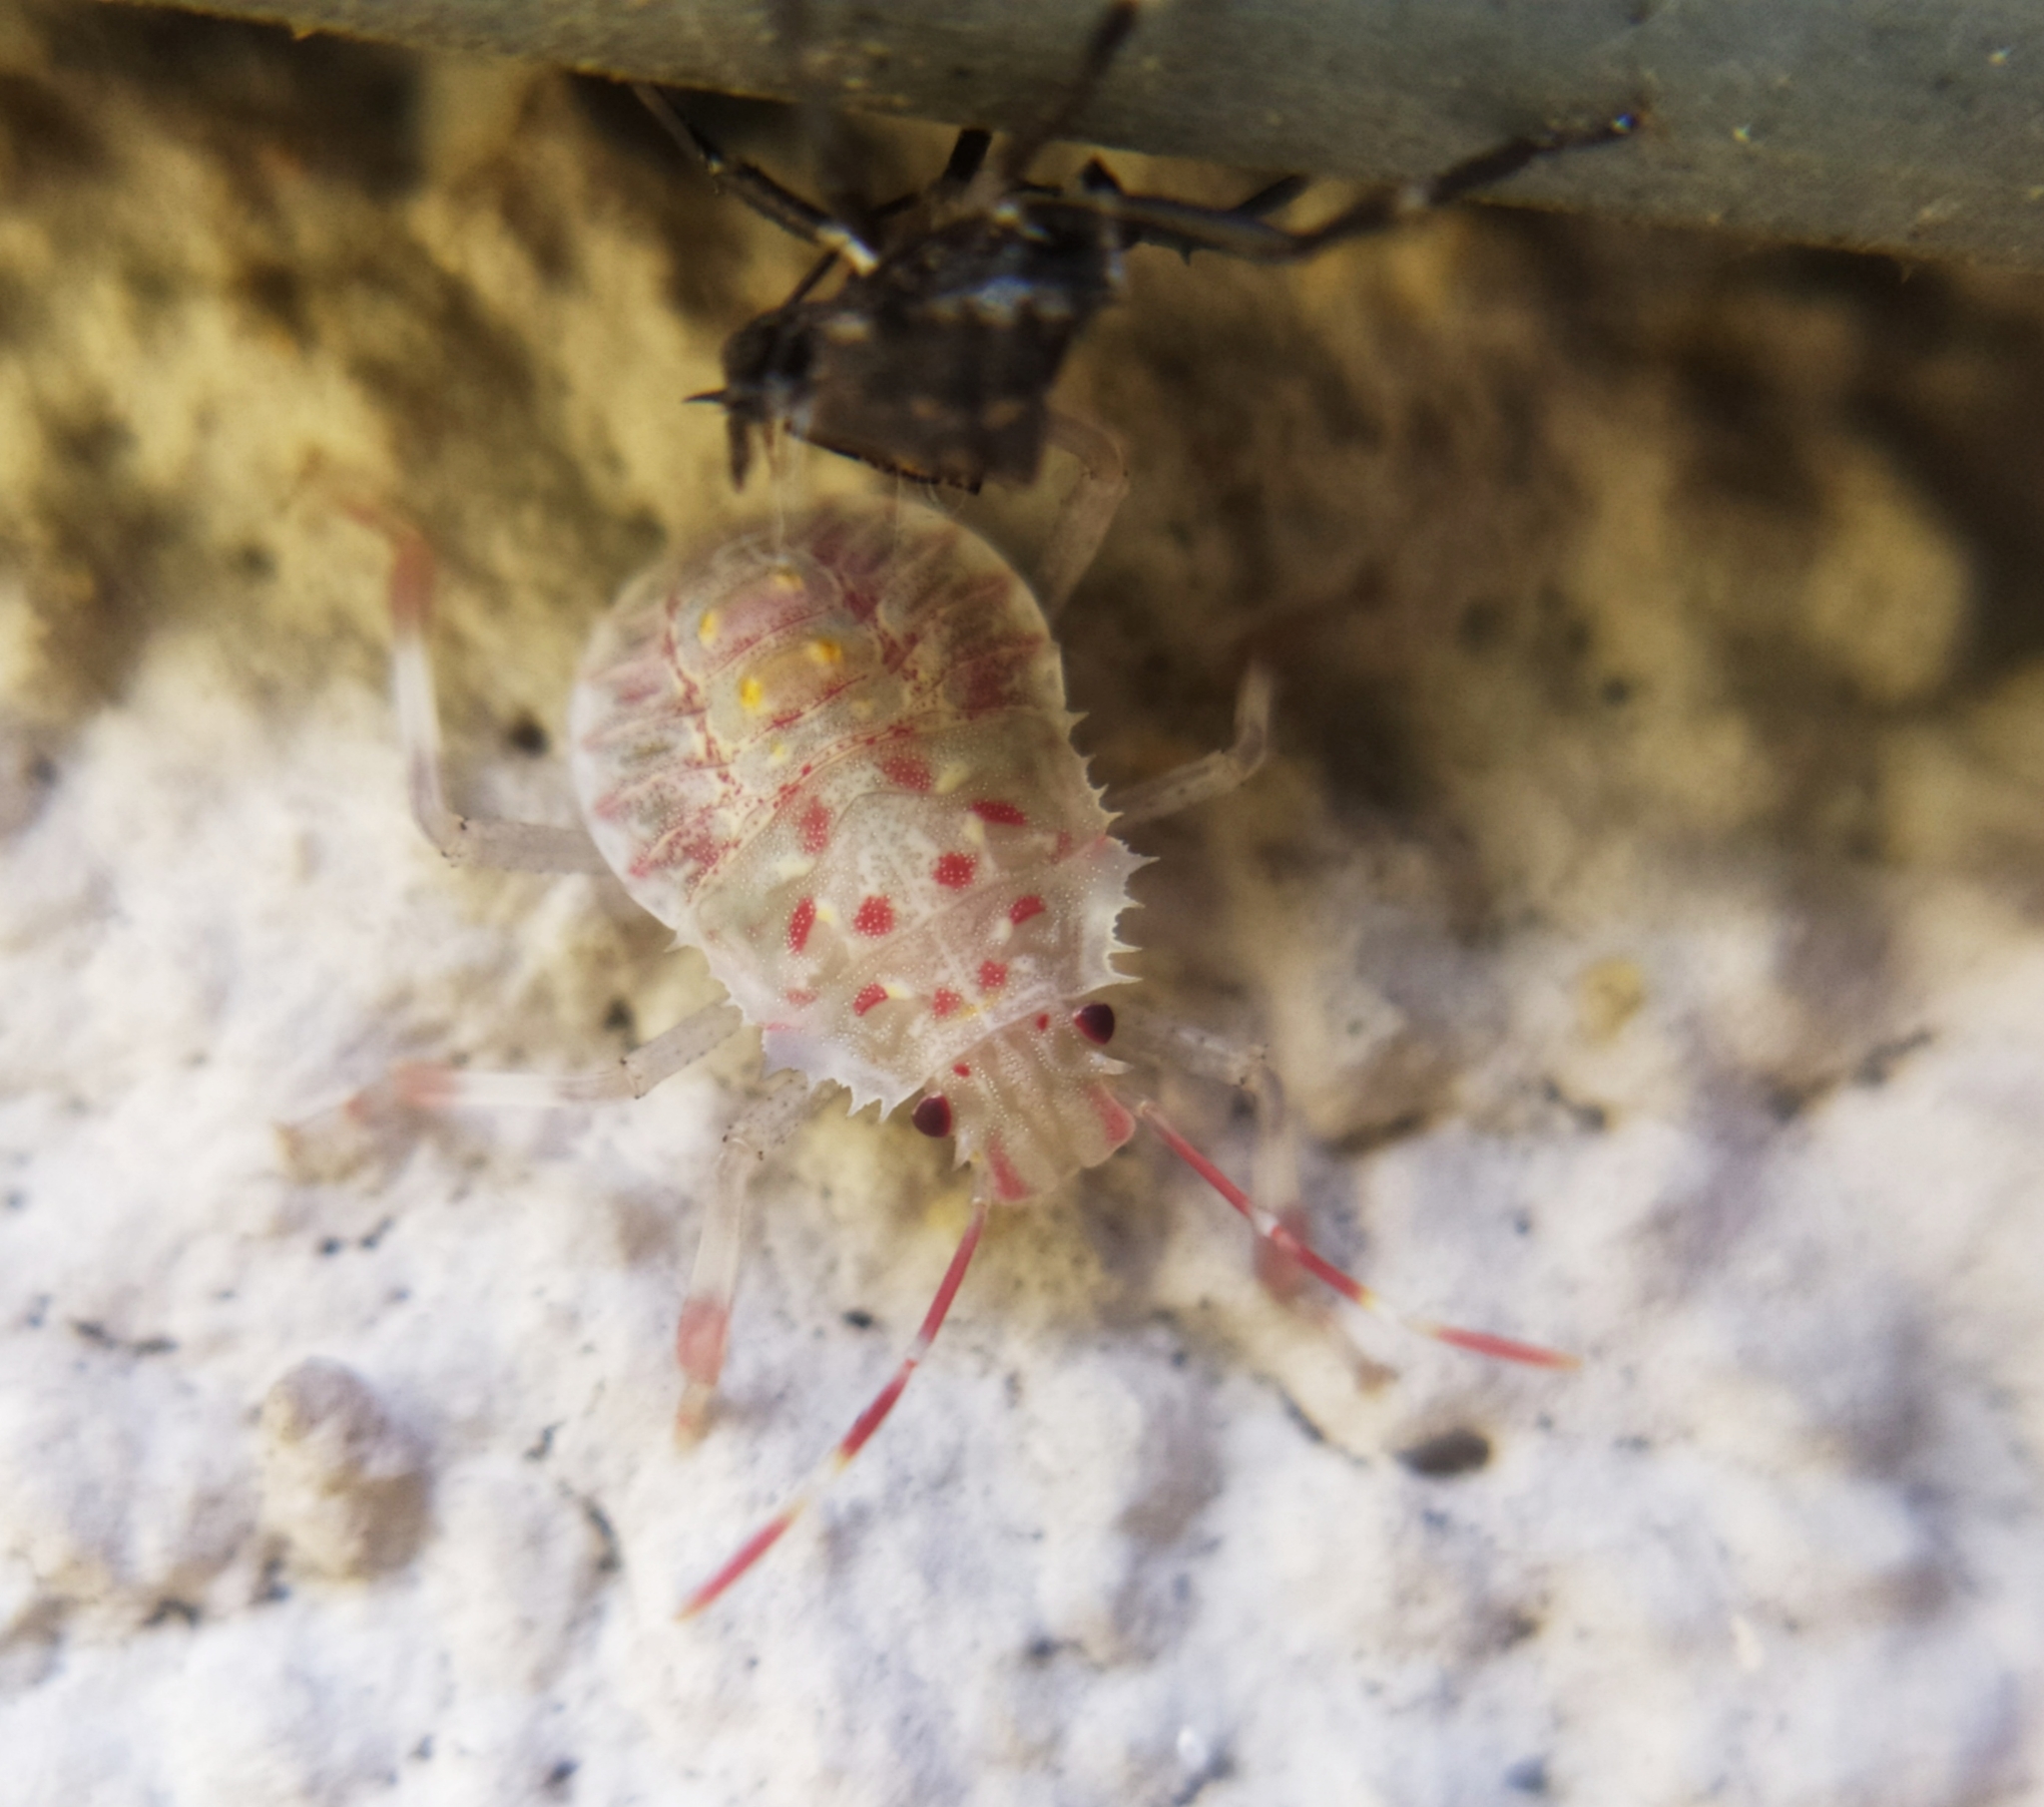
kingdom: Animalia
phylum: Arthropoda
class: Insecta
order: Hemiptera
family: Pentatomidae
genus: Halyomorpha
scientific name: Halyomorpha halys
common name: Brown marmorated stink bug
